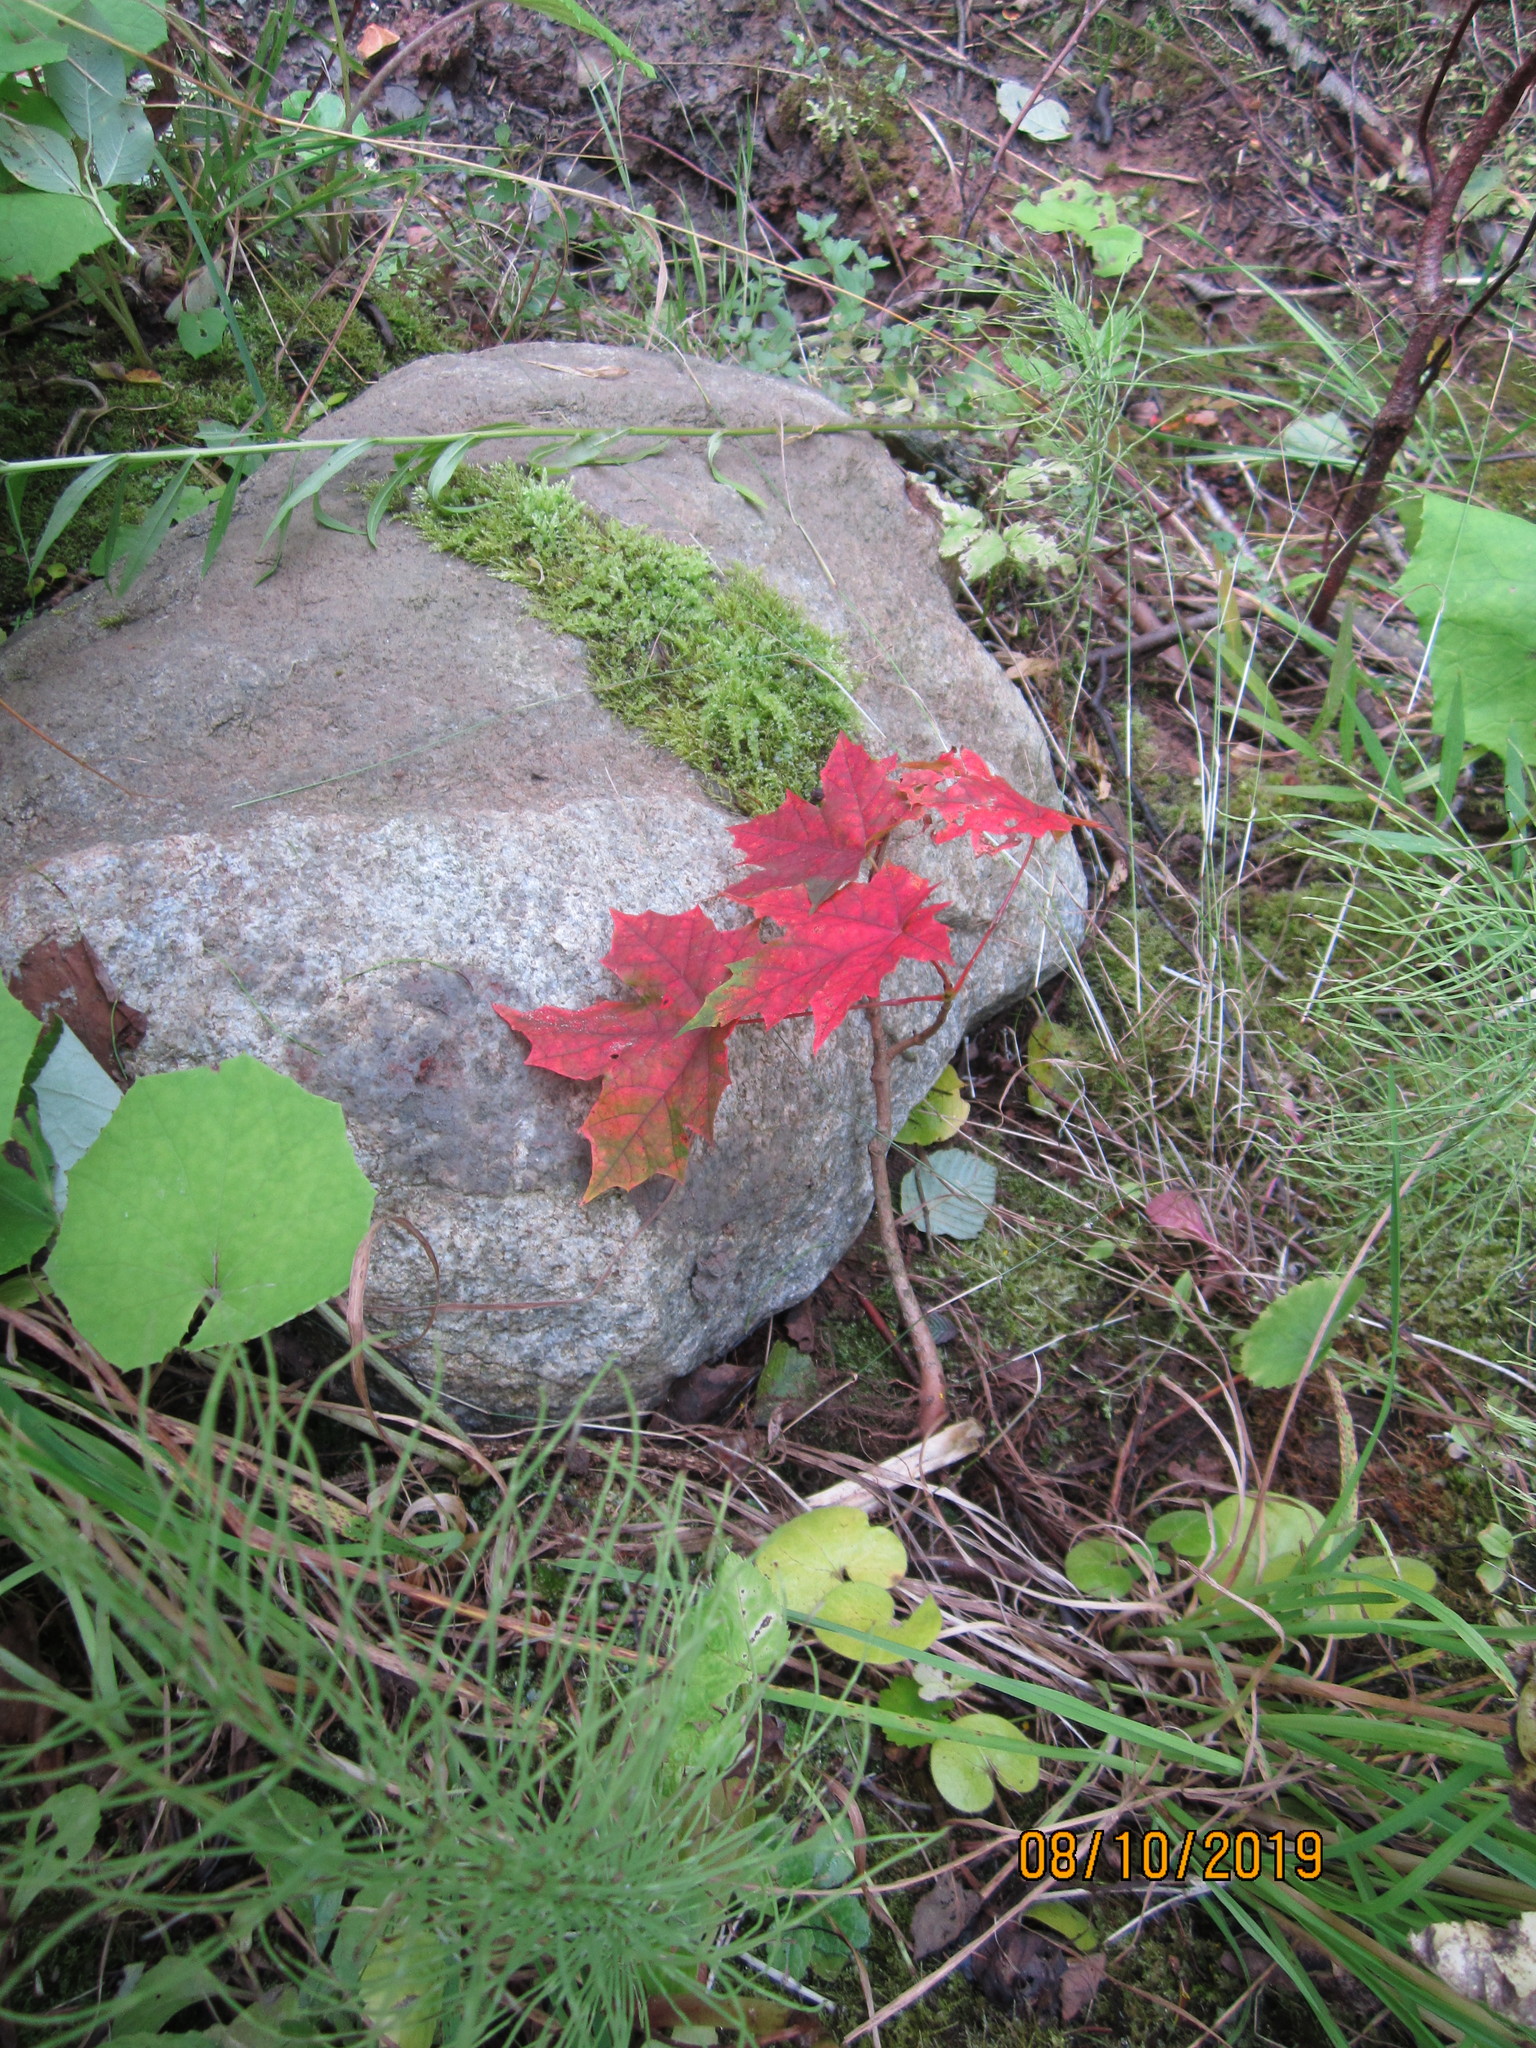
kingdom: Plantae
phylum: Tracheophyta
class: Magnoliopsida
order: Sapindales
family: Sapindaceae
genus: Acer
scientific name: Acer platanoides
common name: Norway maple
